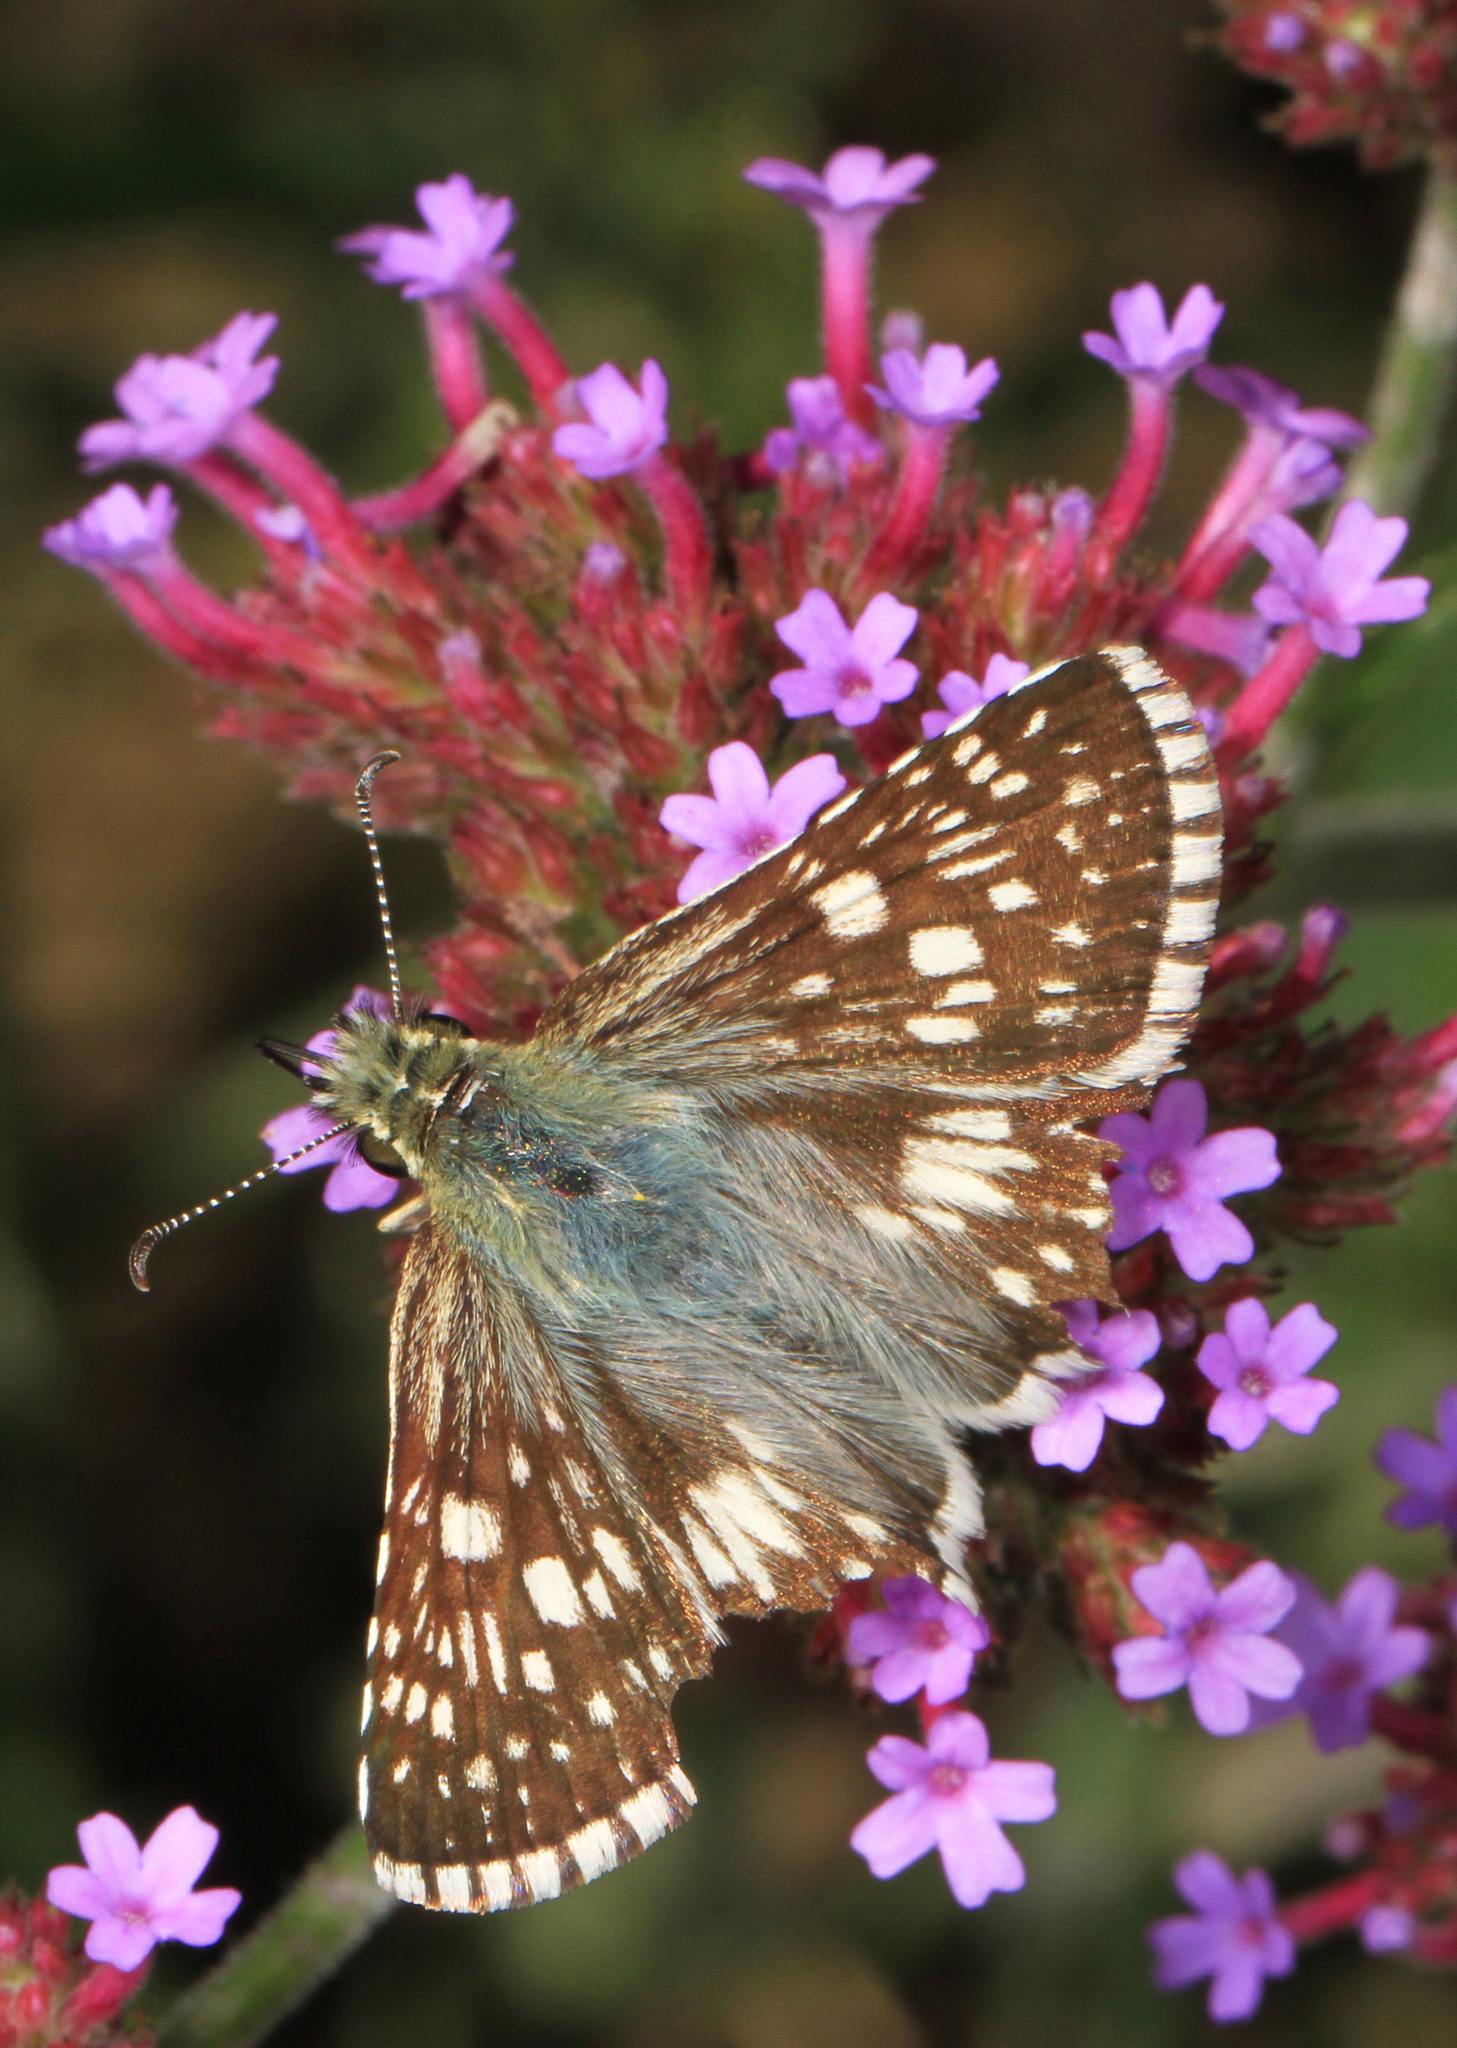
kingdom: Animalia
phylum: Arthropoda
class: Insecta
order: Lepidoptera
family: Hesperiidae
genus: Burnsius
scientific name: Burnsius communis
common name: Common checkered-skipper
